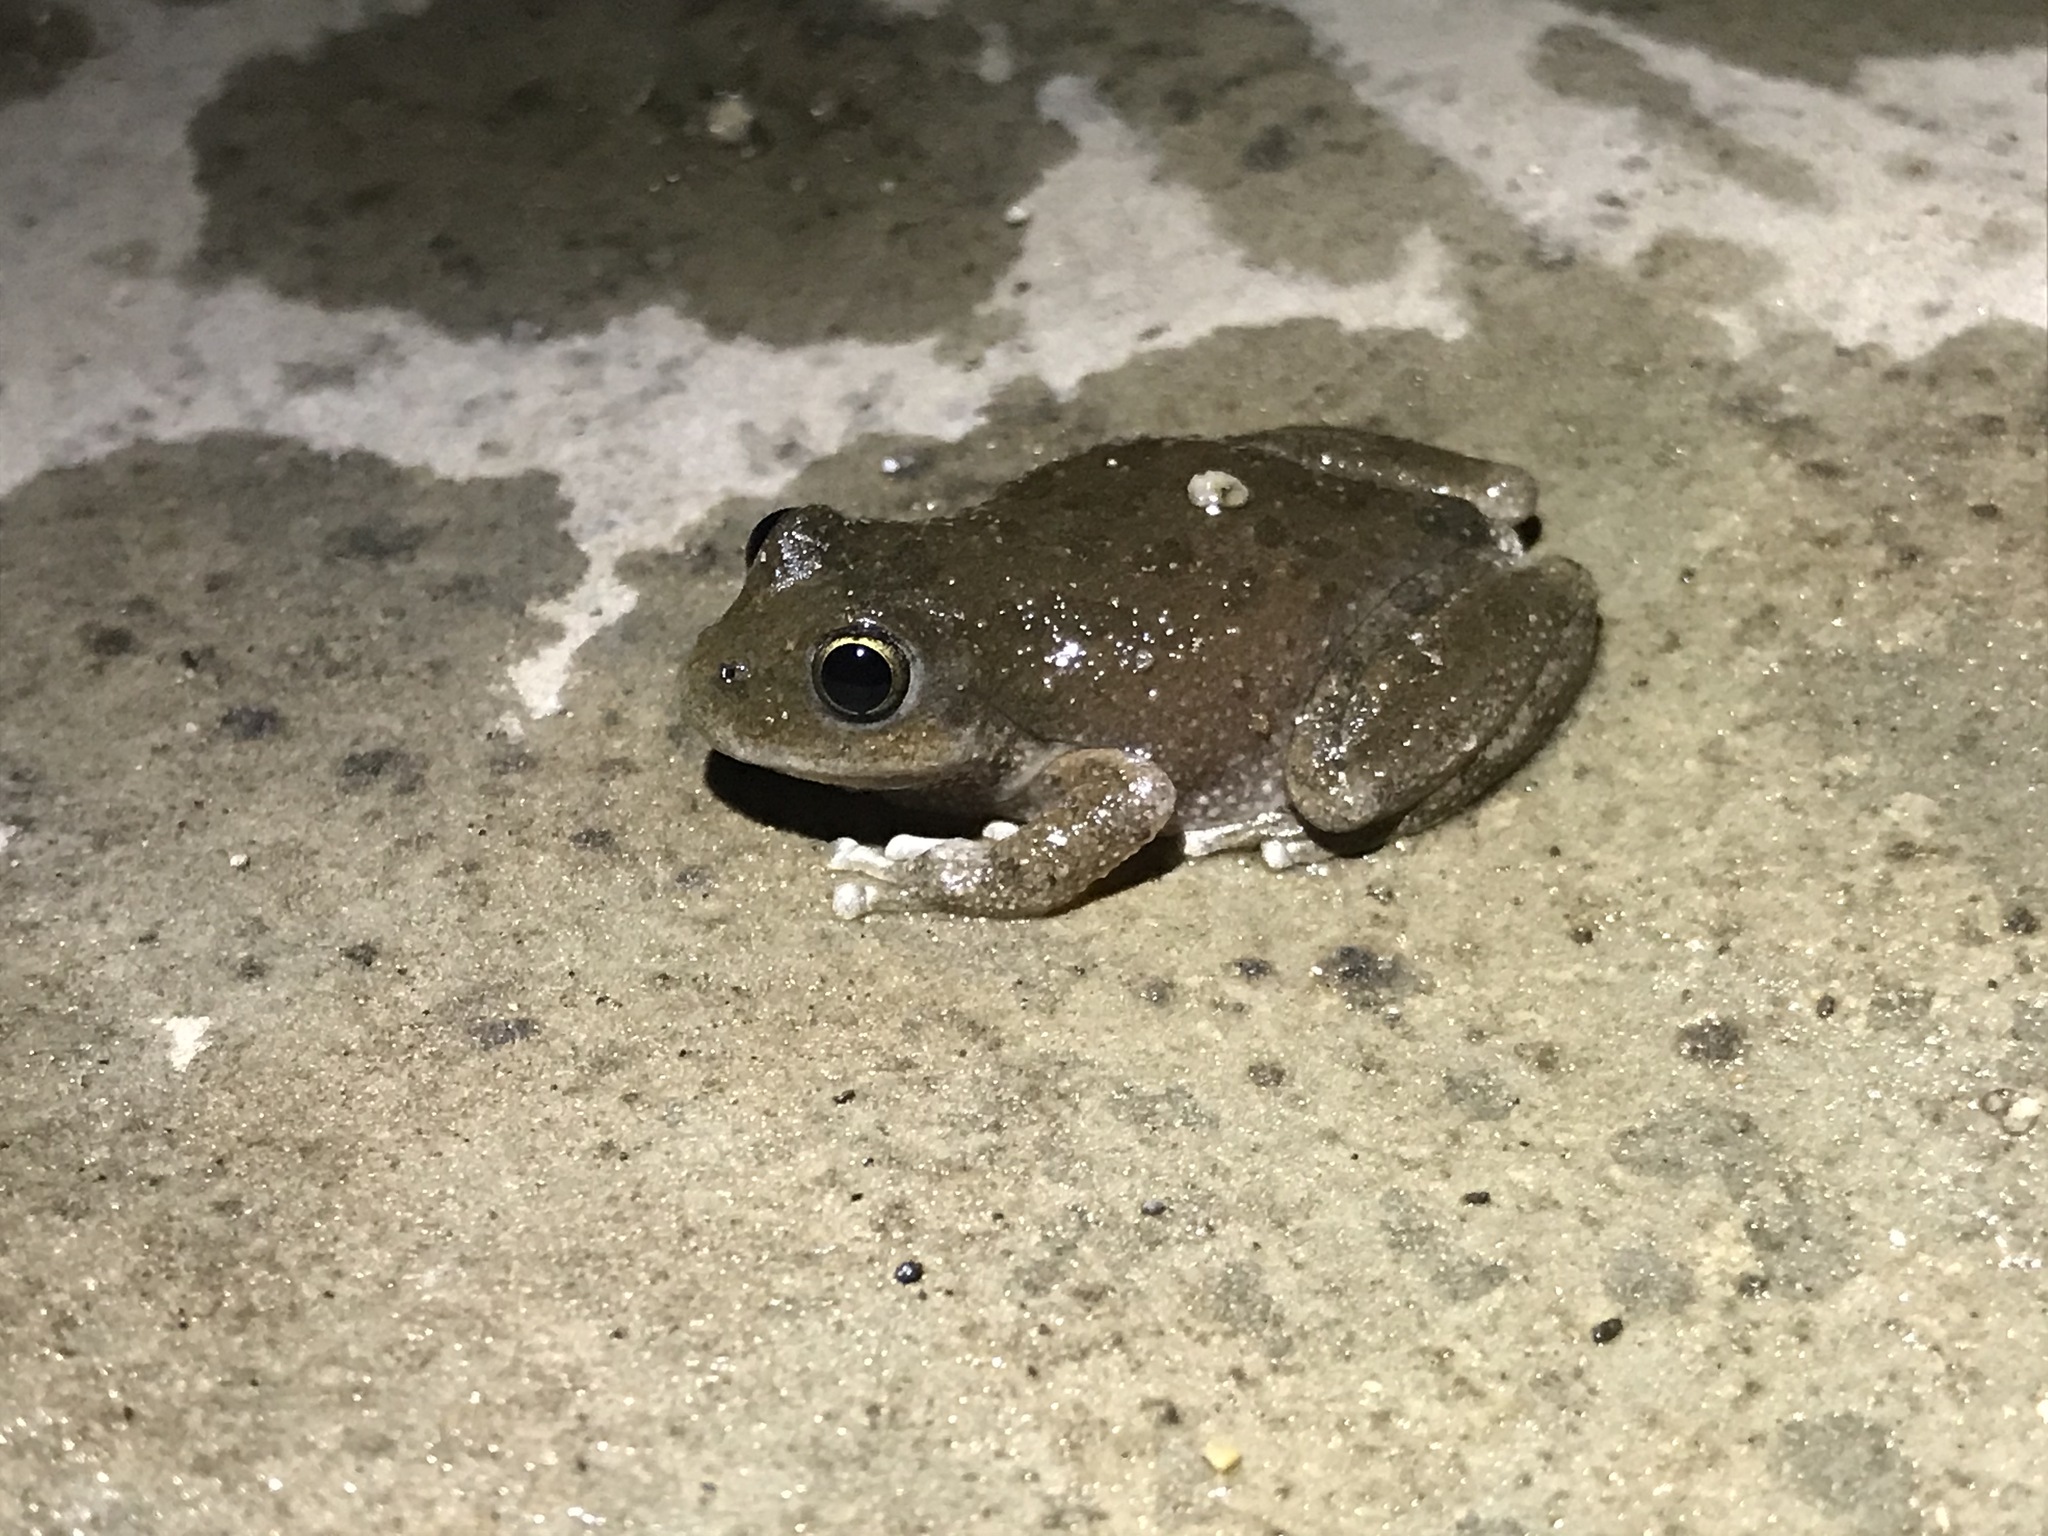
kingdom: Animalia
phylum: Chordata
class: Amphibia
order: Anura
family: Hylidae
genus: Pseudacris
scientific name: Pseudacris cadaverina
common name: California chorus frog
